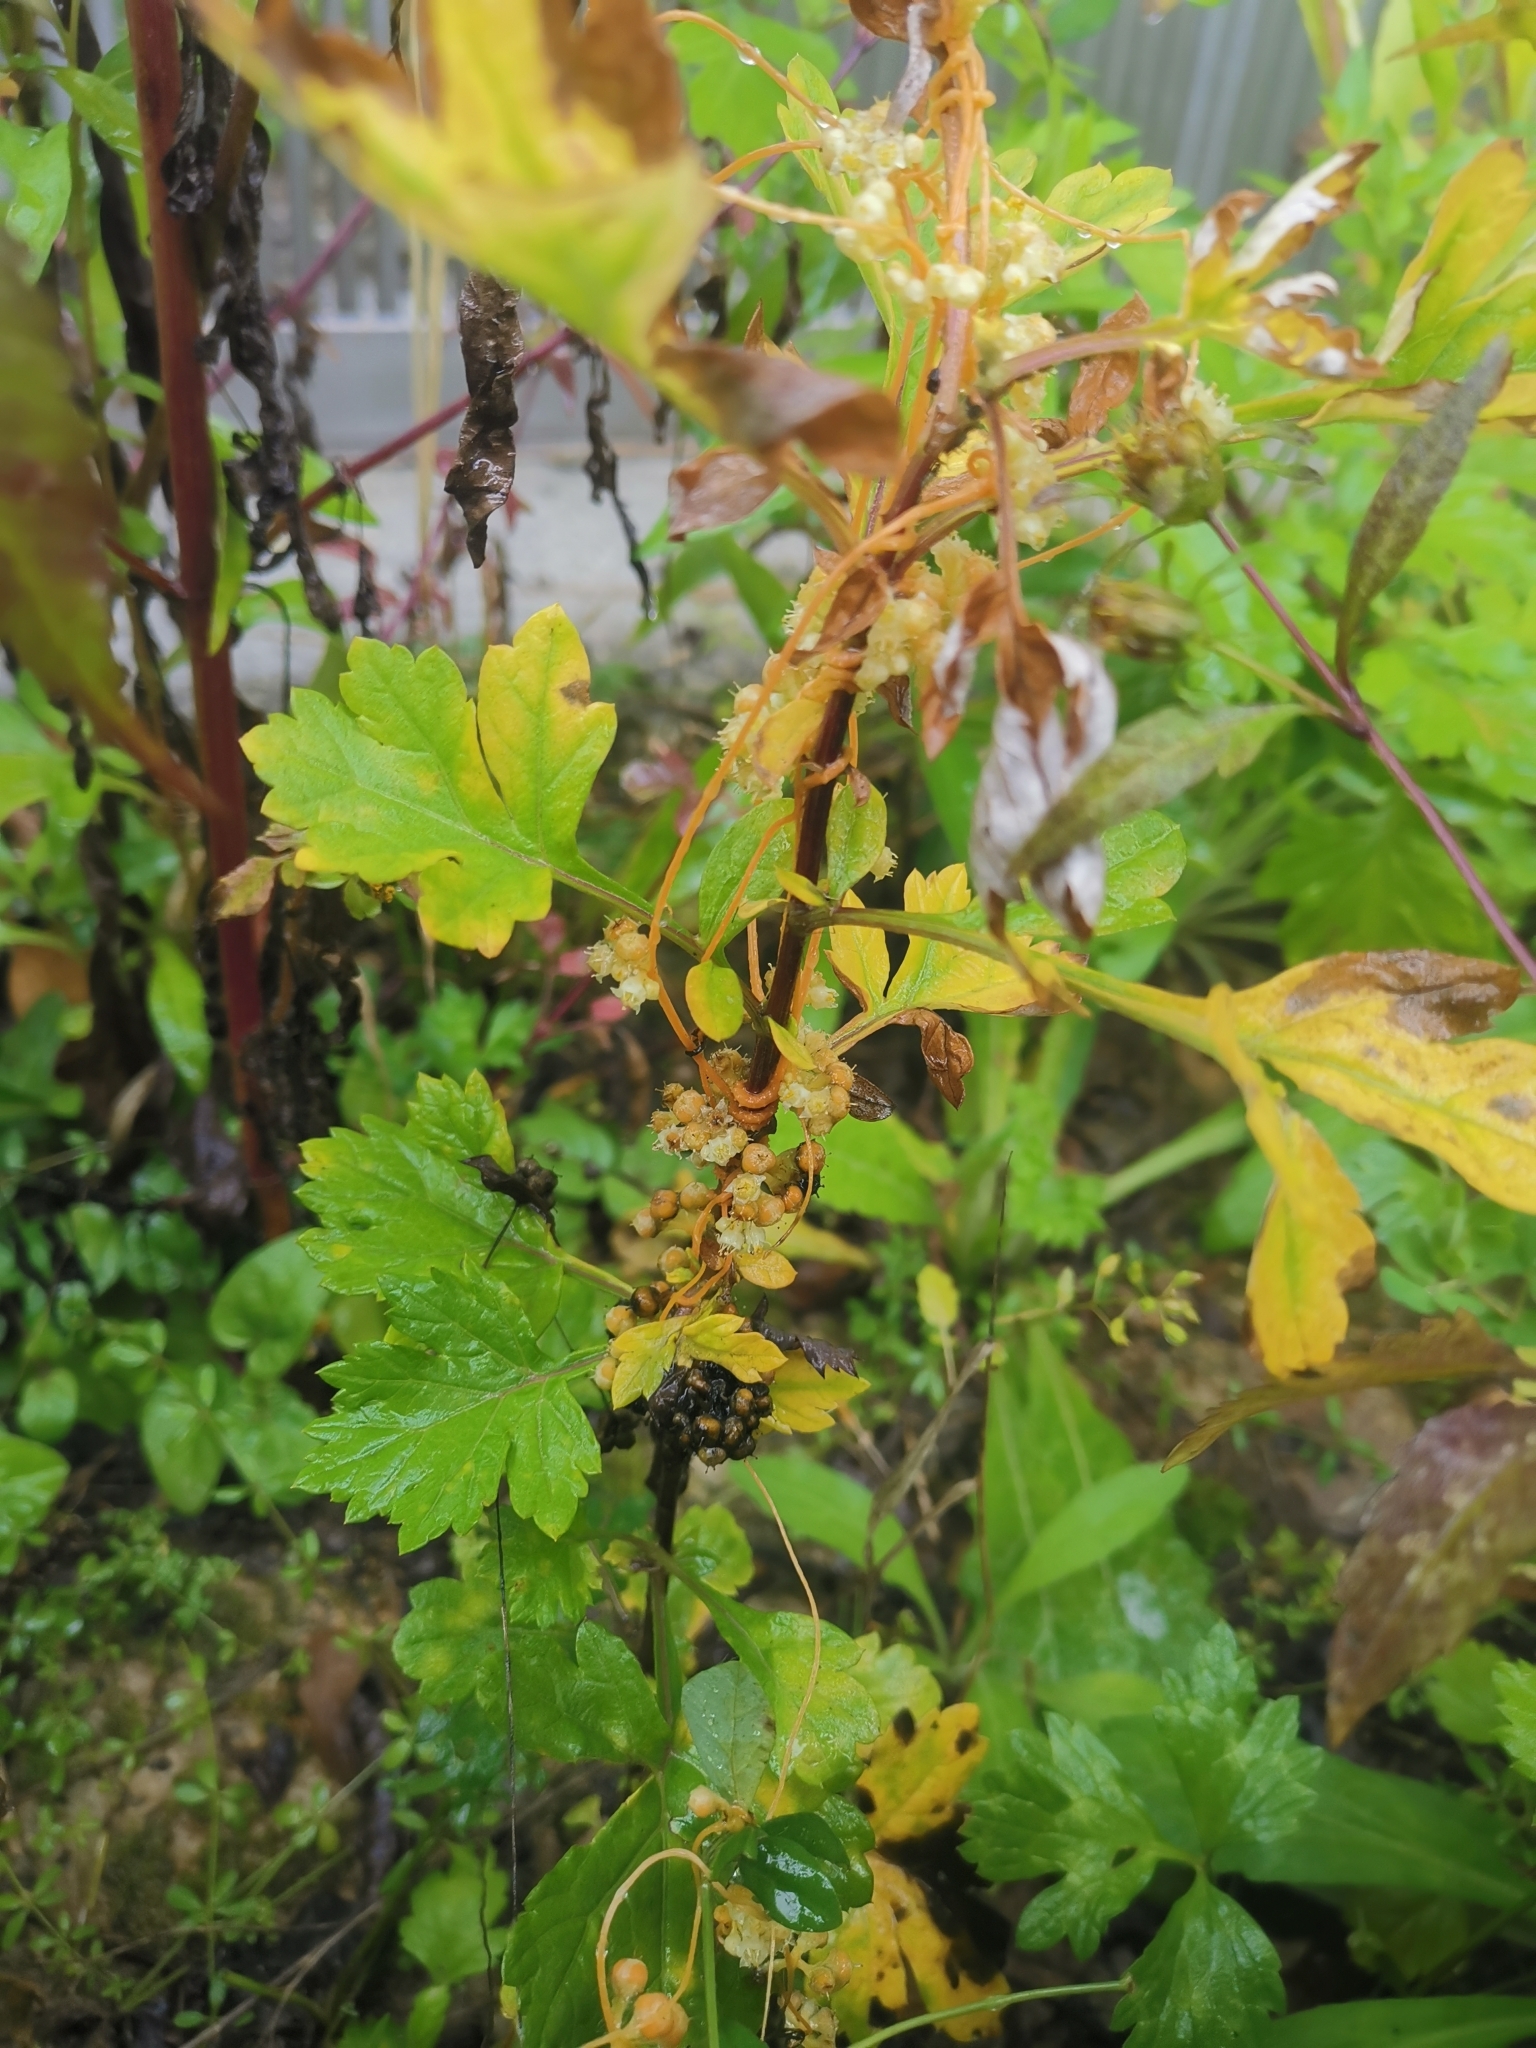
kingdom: Plantae
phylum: Tracheophyta
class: Magnoliopsida
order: Solanales
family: Convolvulaceae
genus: Cuscuta
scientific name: Cuscuta campestris
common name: Yellow dodder
